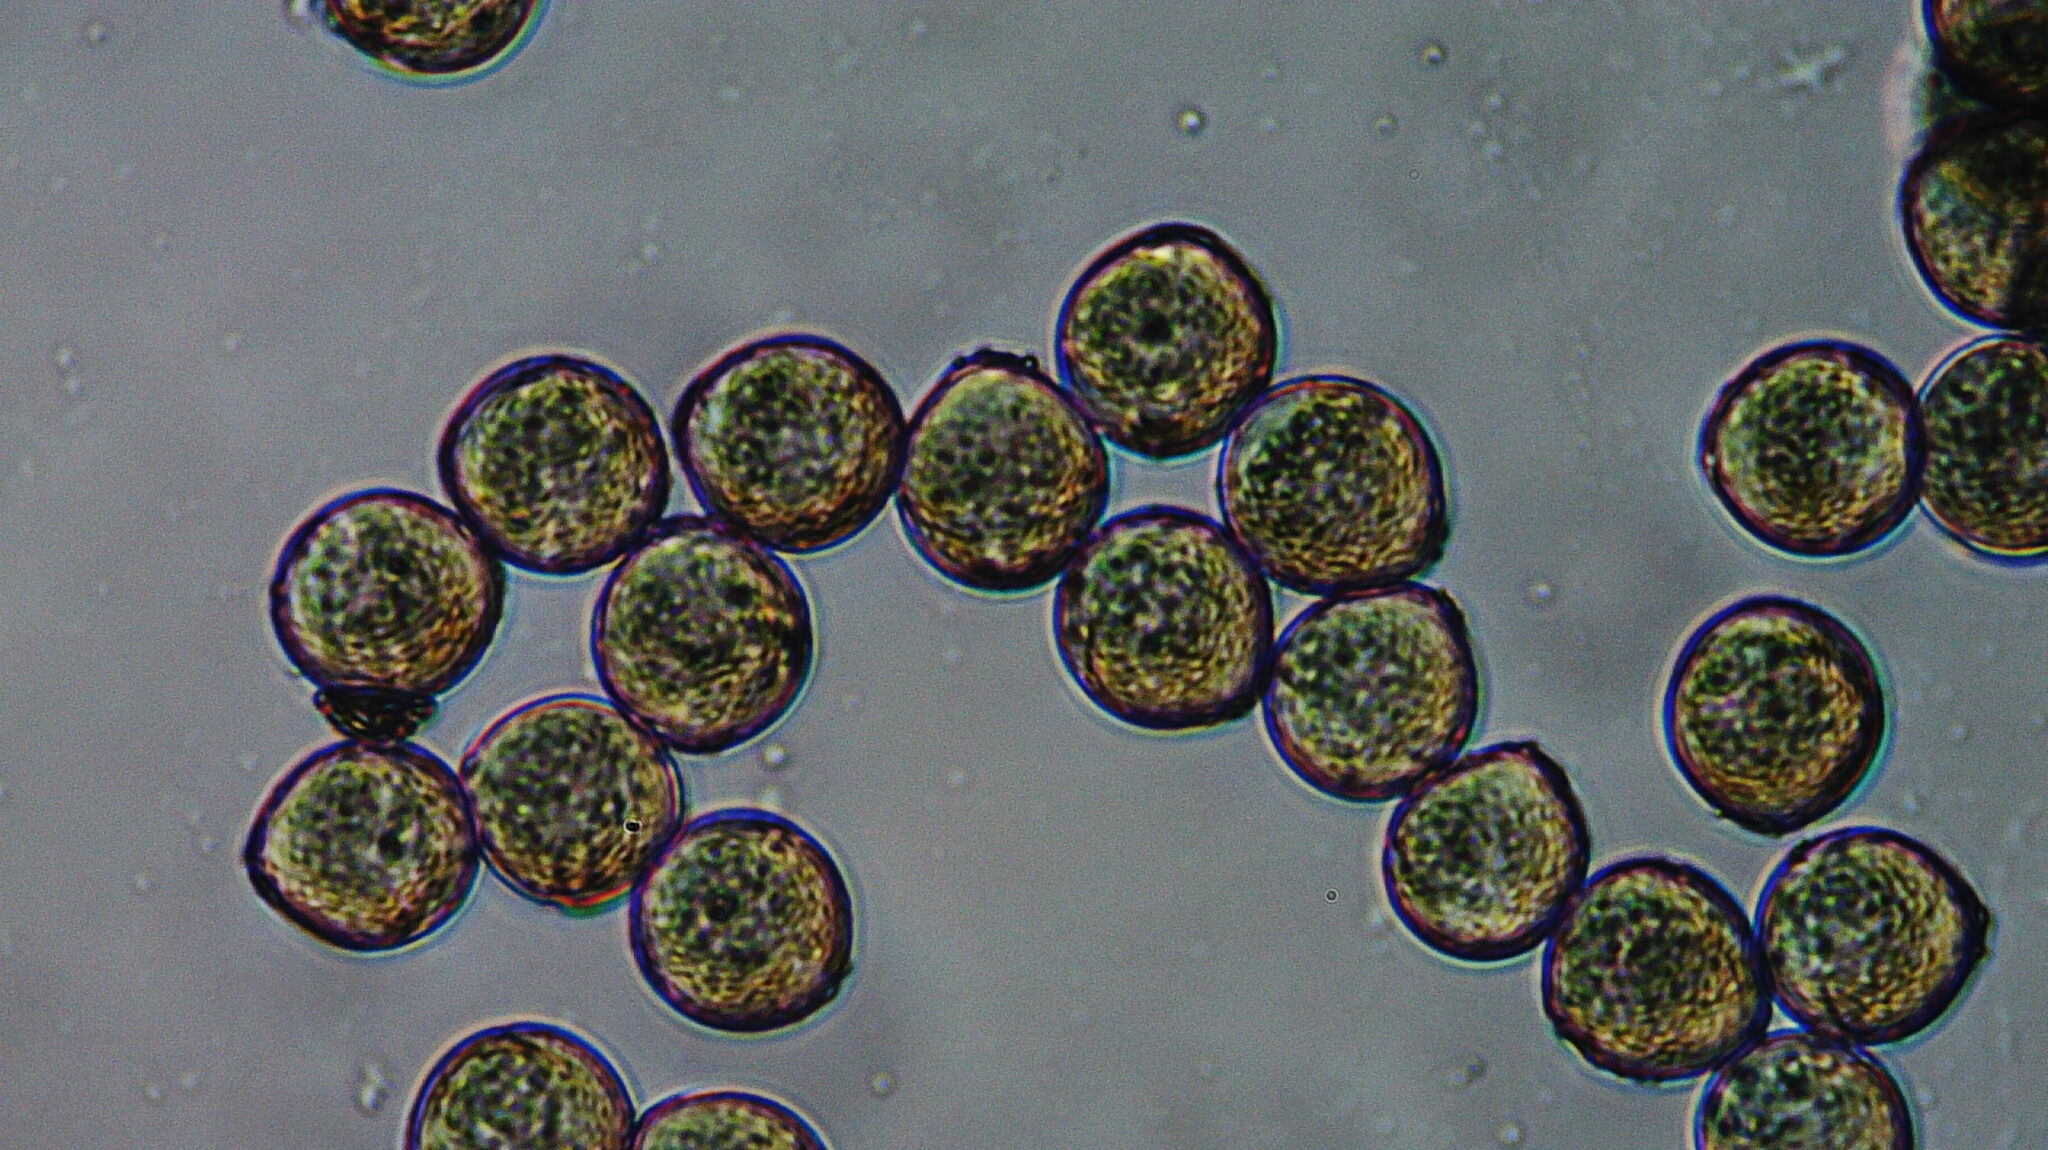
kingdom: Plantae
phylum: Tracheophyta
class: Magnoliopsida
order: Fabales
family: Fabaceae
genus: Cercis
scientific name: Cercis canadensis
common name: Eastern redbud
